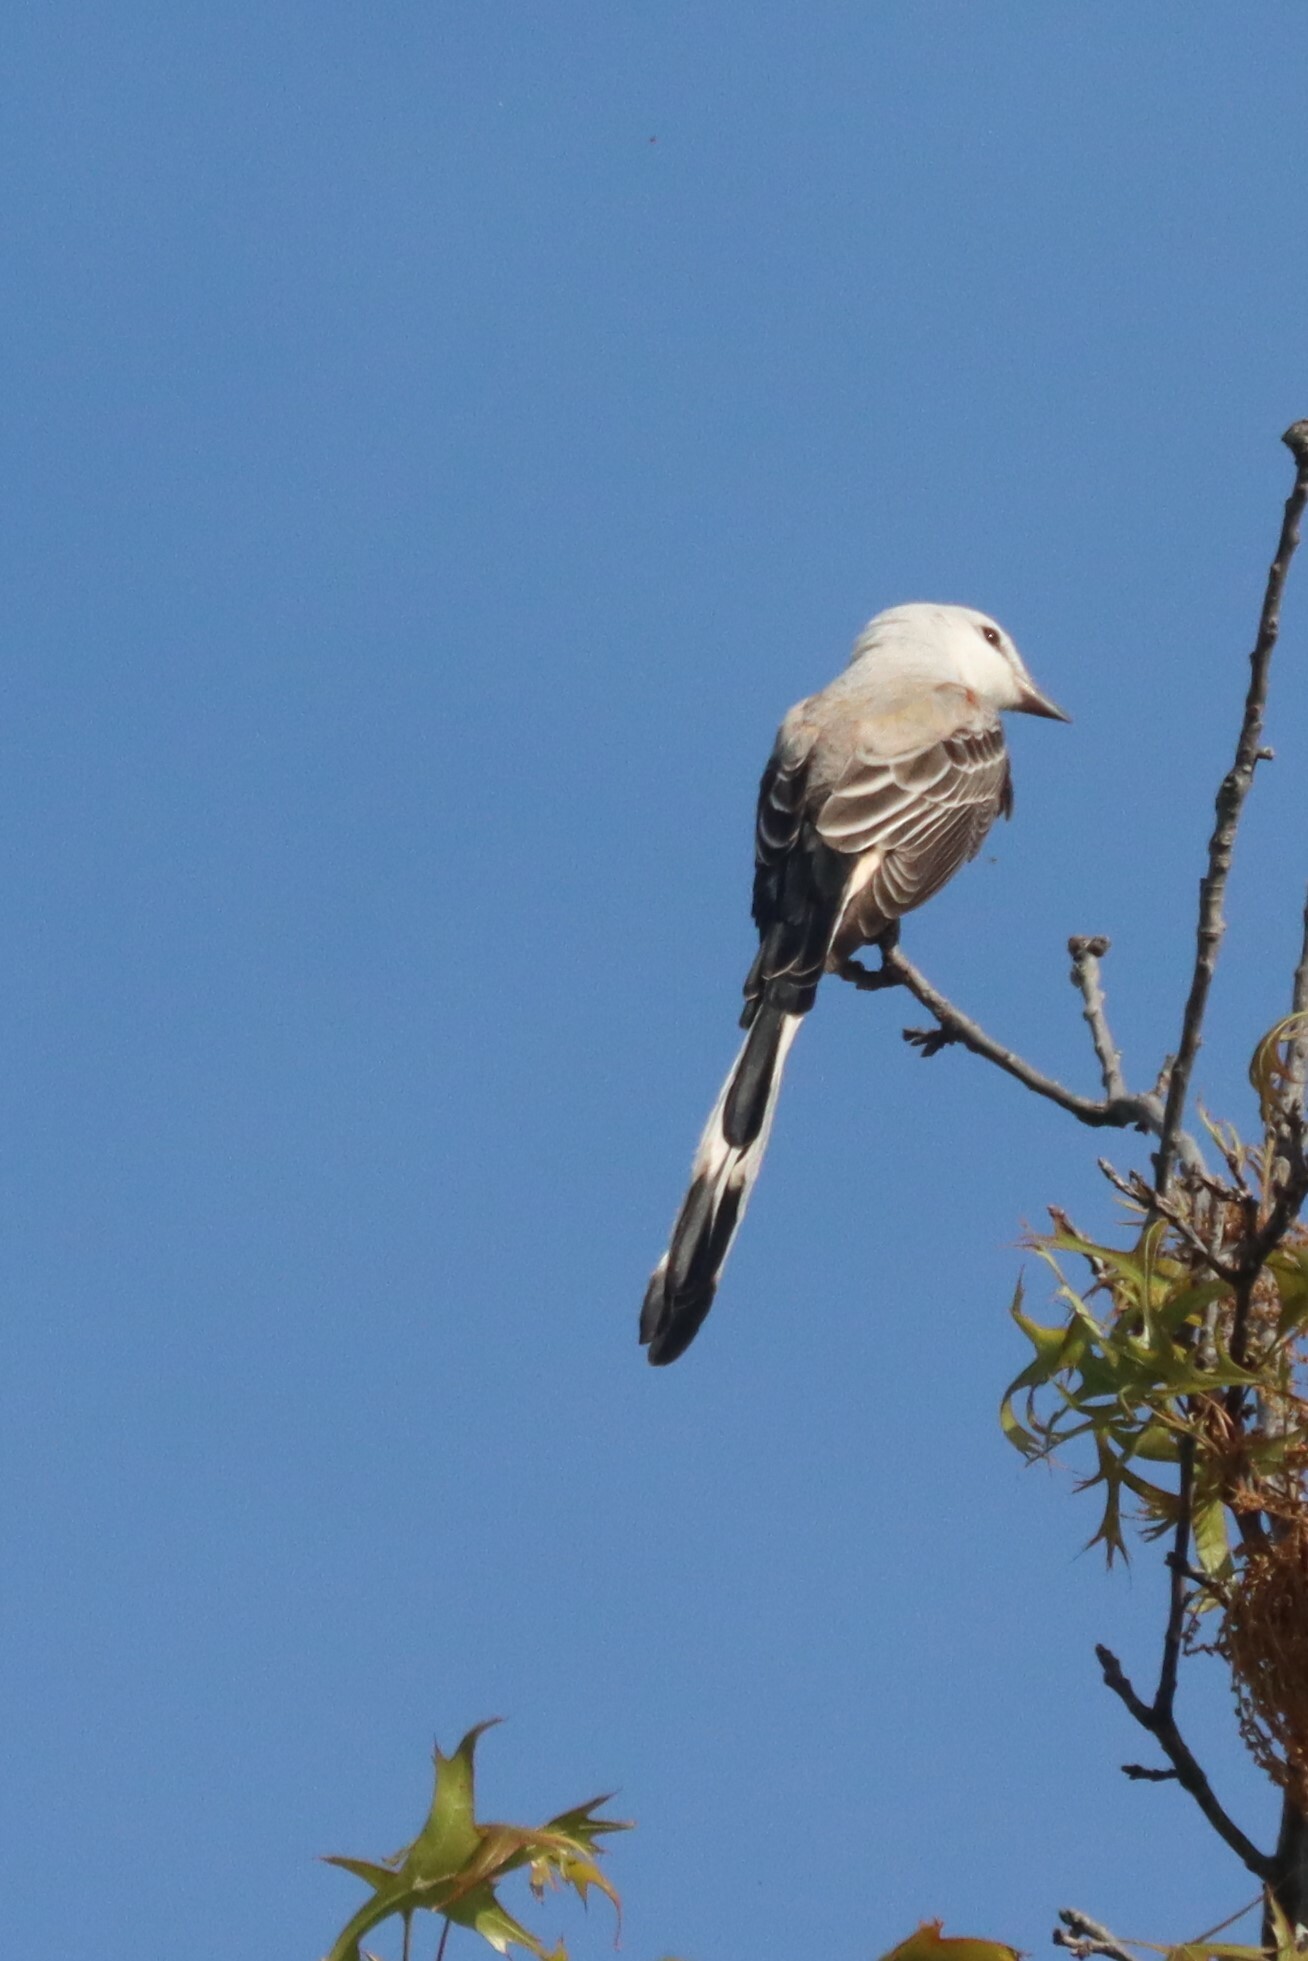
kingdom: Animalia
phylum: Chordata
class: Aves
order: Passeriformes
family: Tyrannidae
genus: Tyrannus
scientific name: Tyrannus forficatus
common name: Scissor-tailed flycatcher
